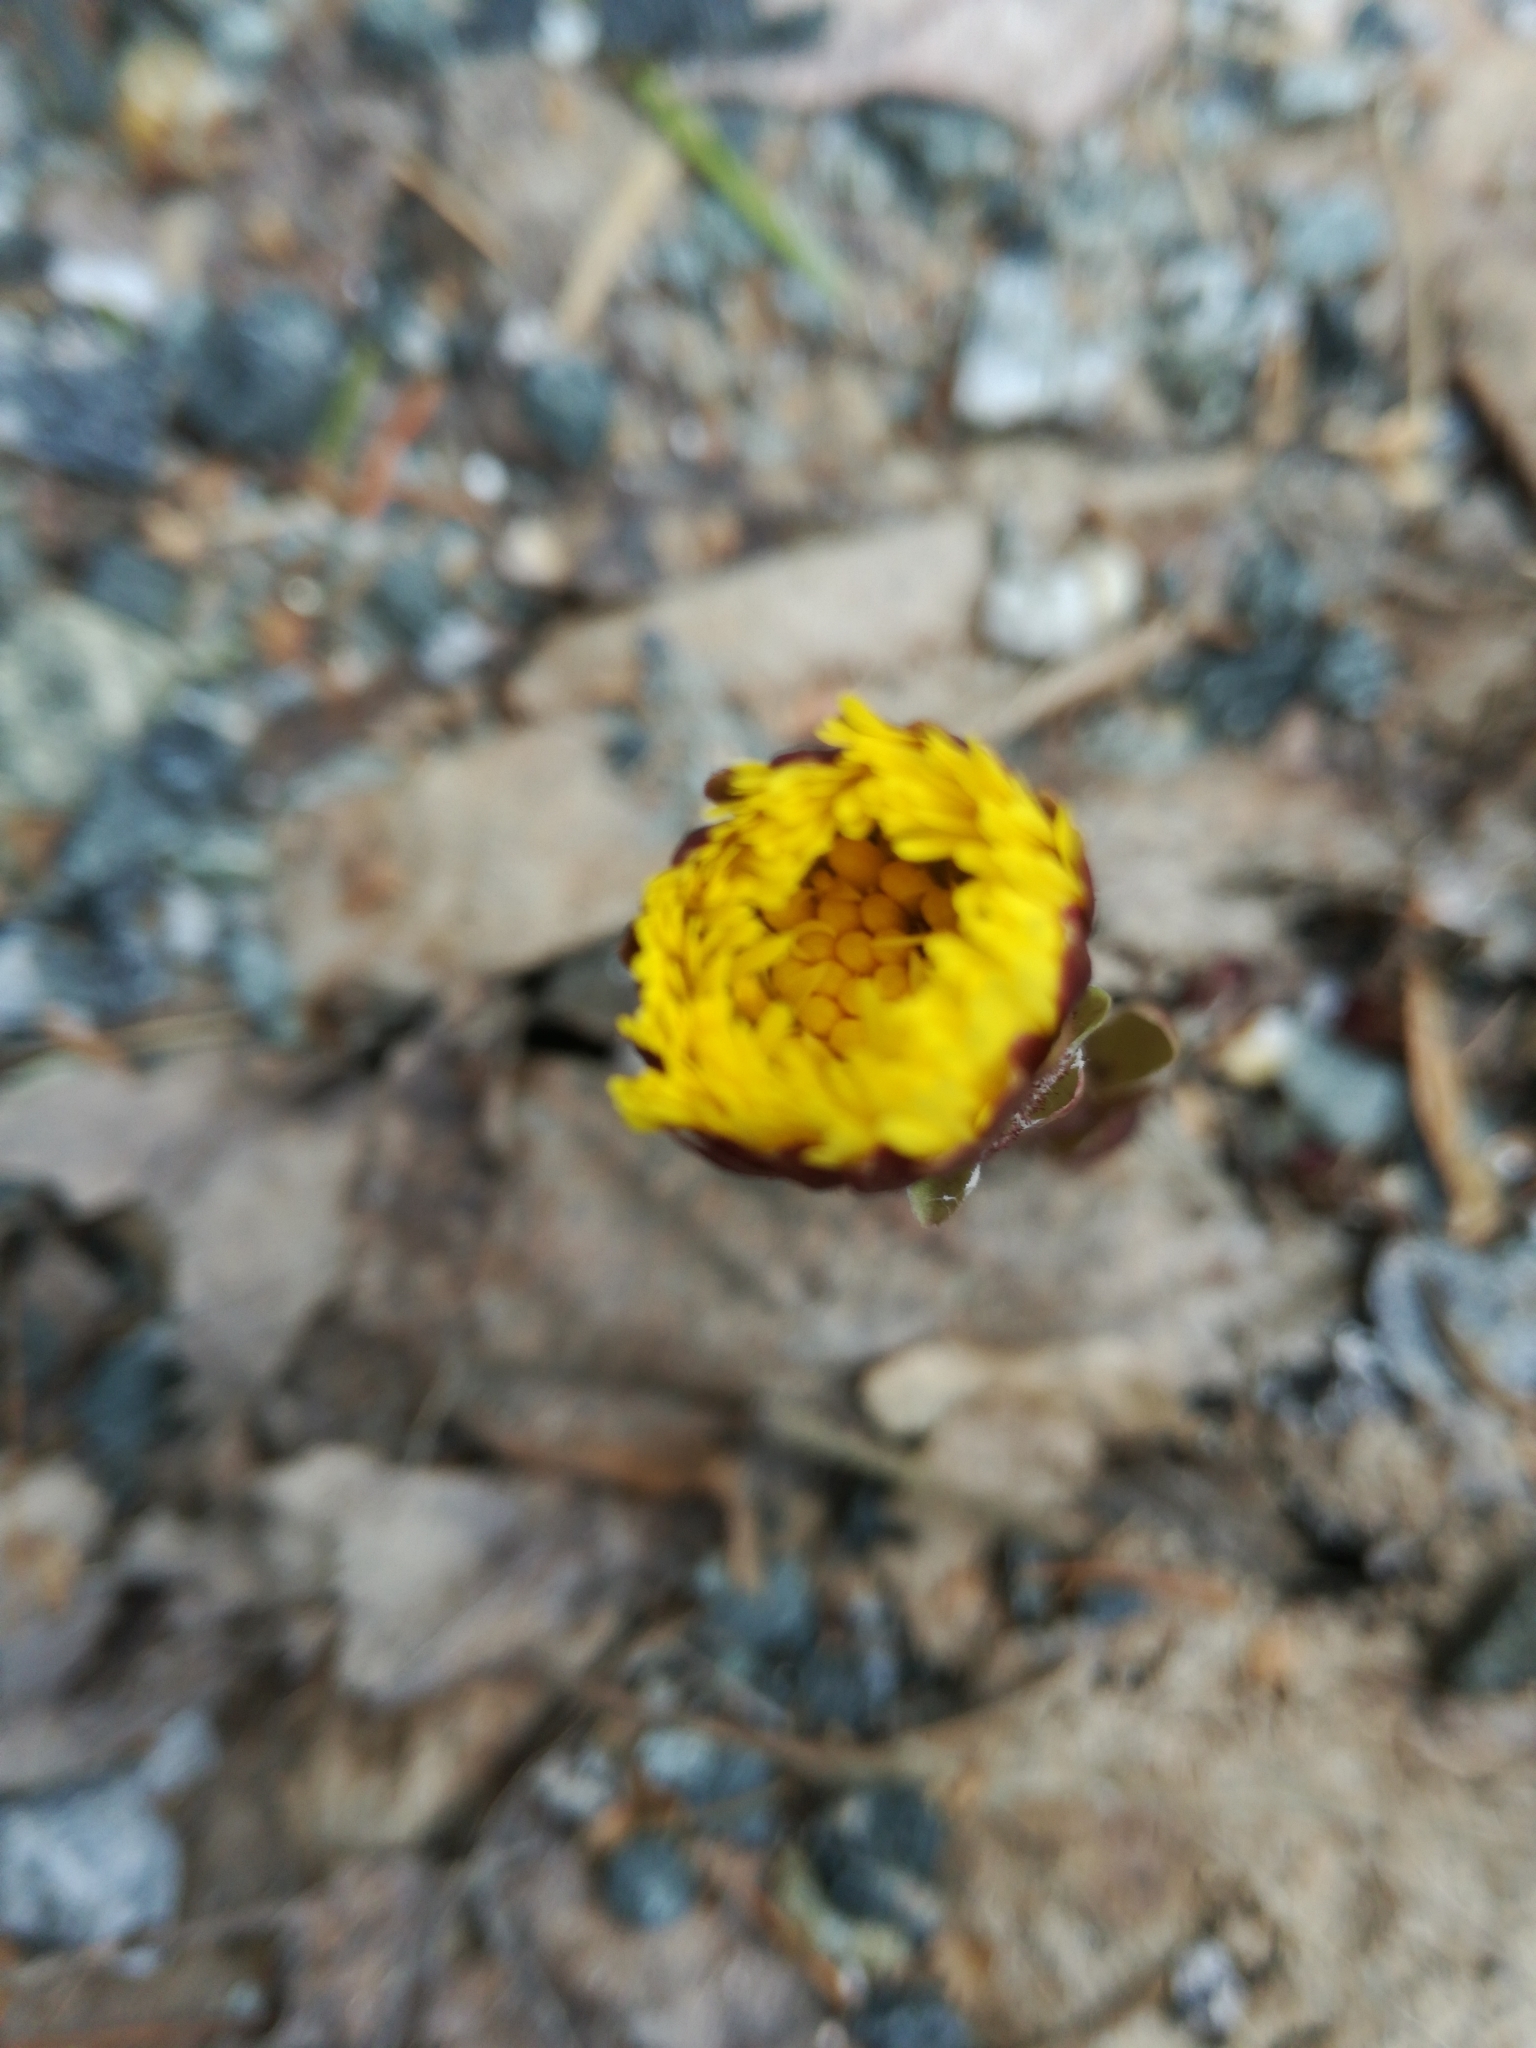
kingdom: Plantae
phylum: Tracheophyta
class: Magnoliopsida
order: Asterales
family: Asteraceae
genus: Tussilago
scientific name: Tussilago farfara
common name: Coltsfoot
